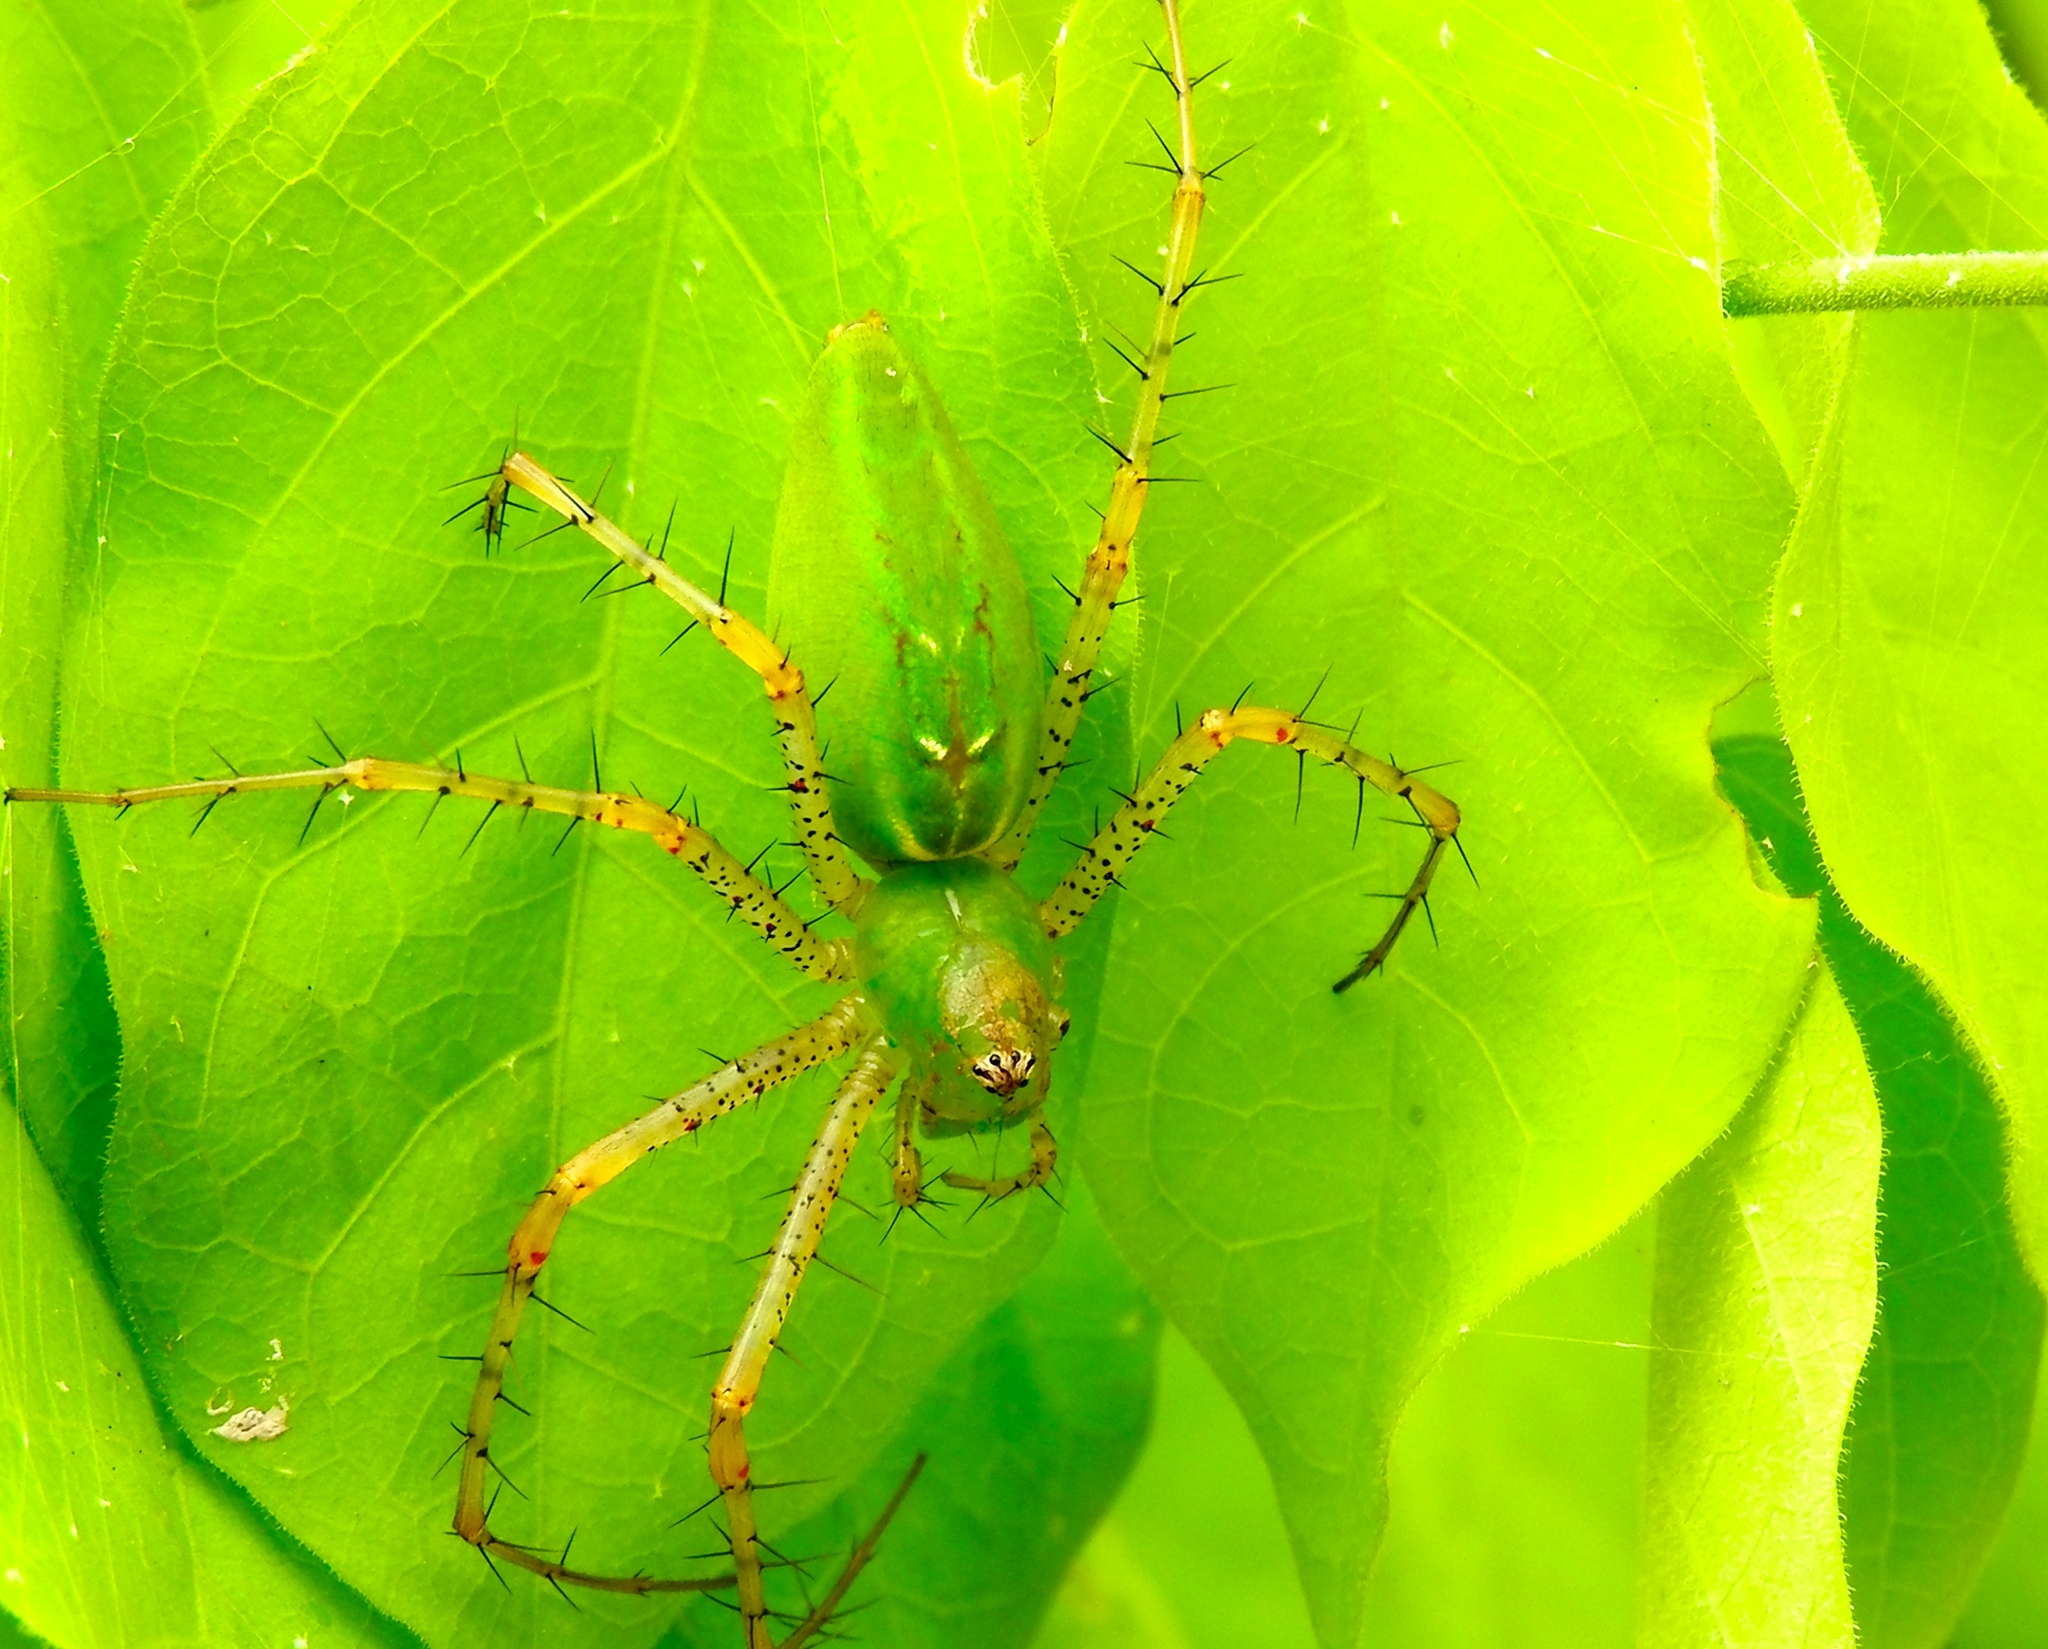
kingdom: Animalia
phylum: Arthropoda
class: Arachnida
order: Araneae
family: Oxyopidae
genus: Peucetia
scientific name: Peucetia viridans
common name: Lynx spiders
